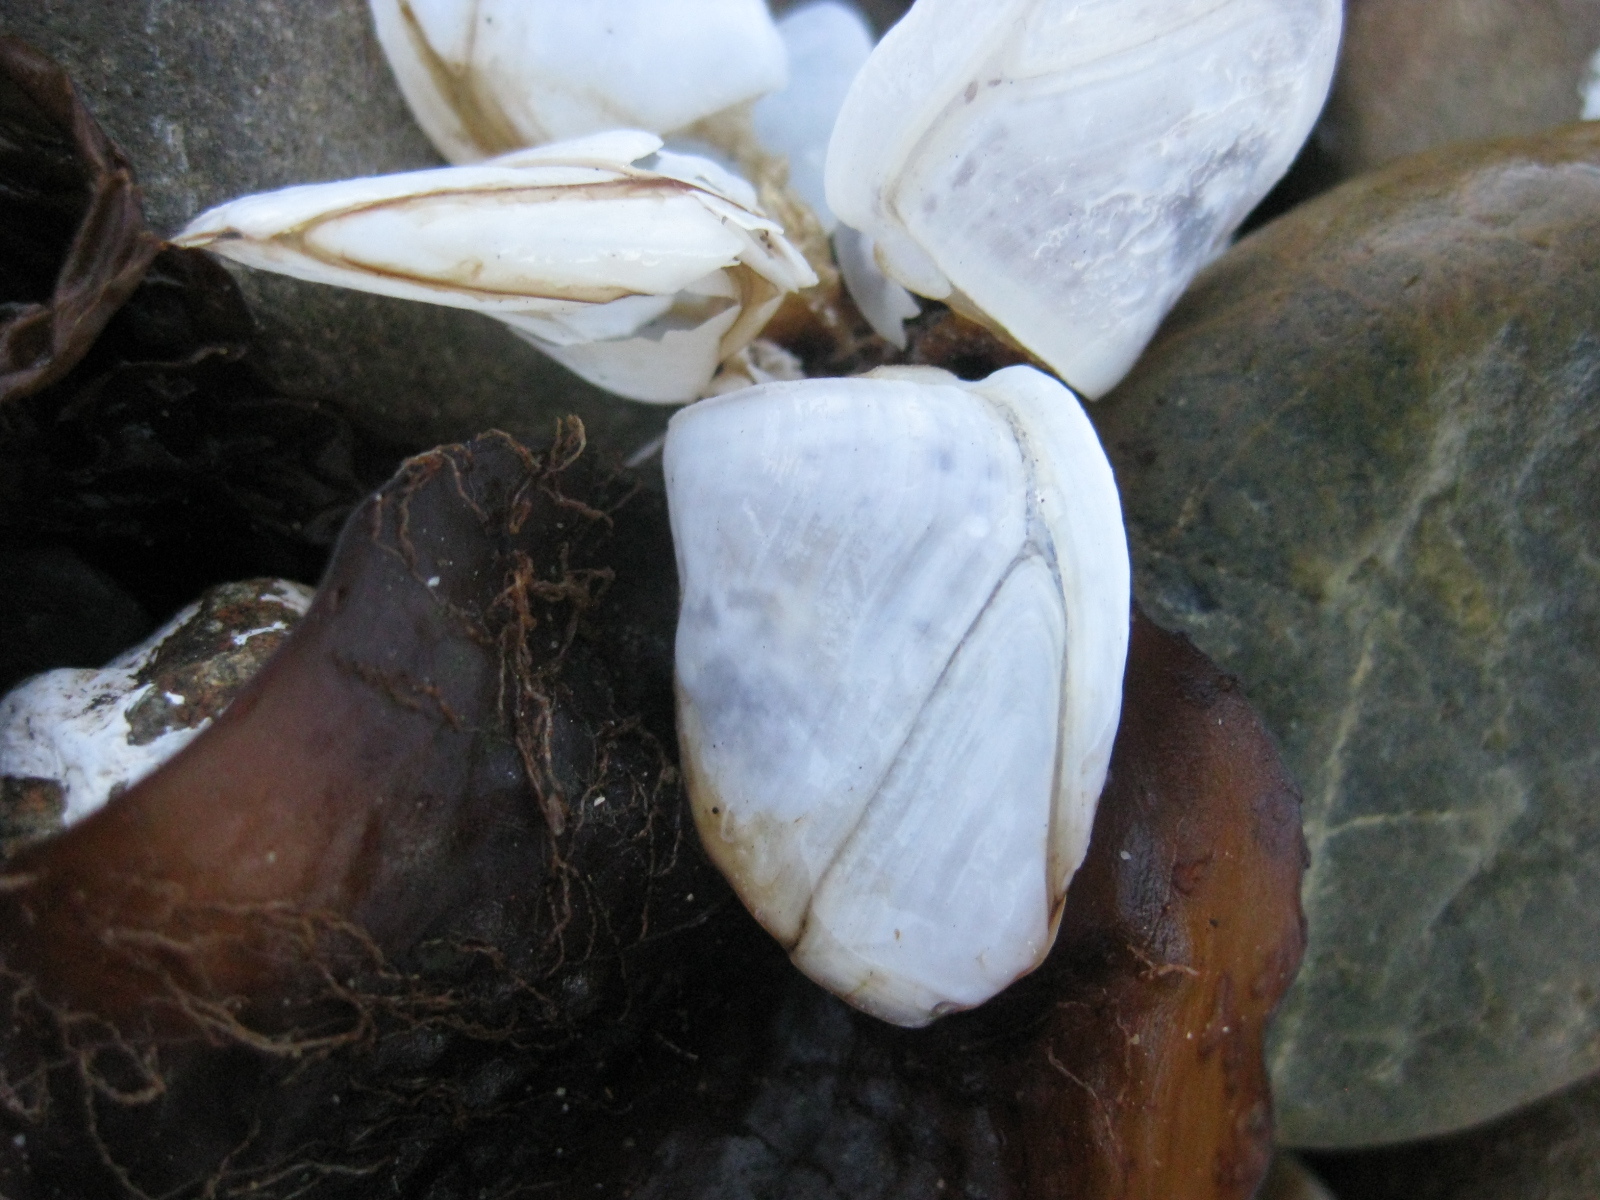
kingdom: Animalia
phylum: Arthropoda
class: Maxillopoda
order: Pedunculata
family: Lepadidae
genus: Lepas
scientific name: Lepas australis
